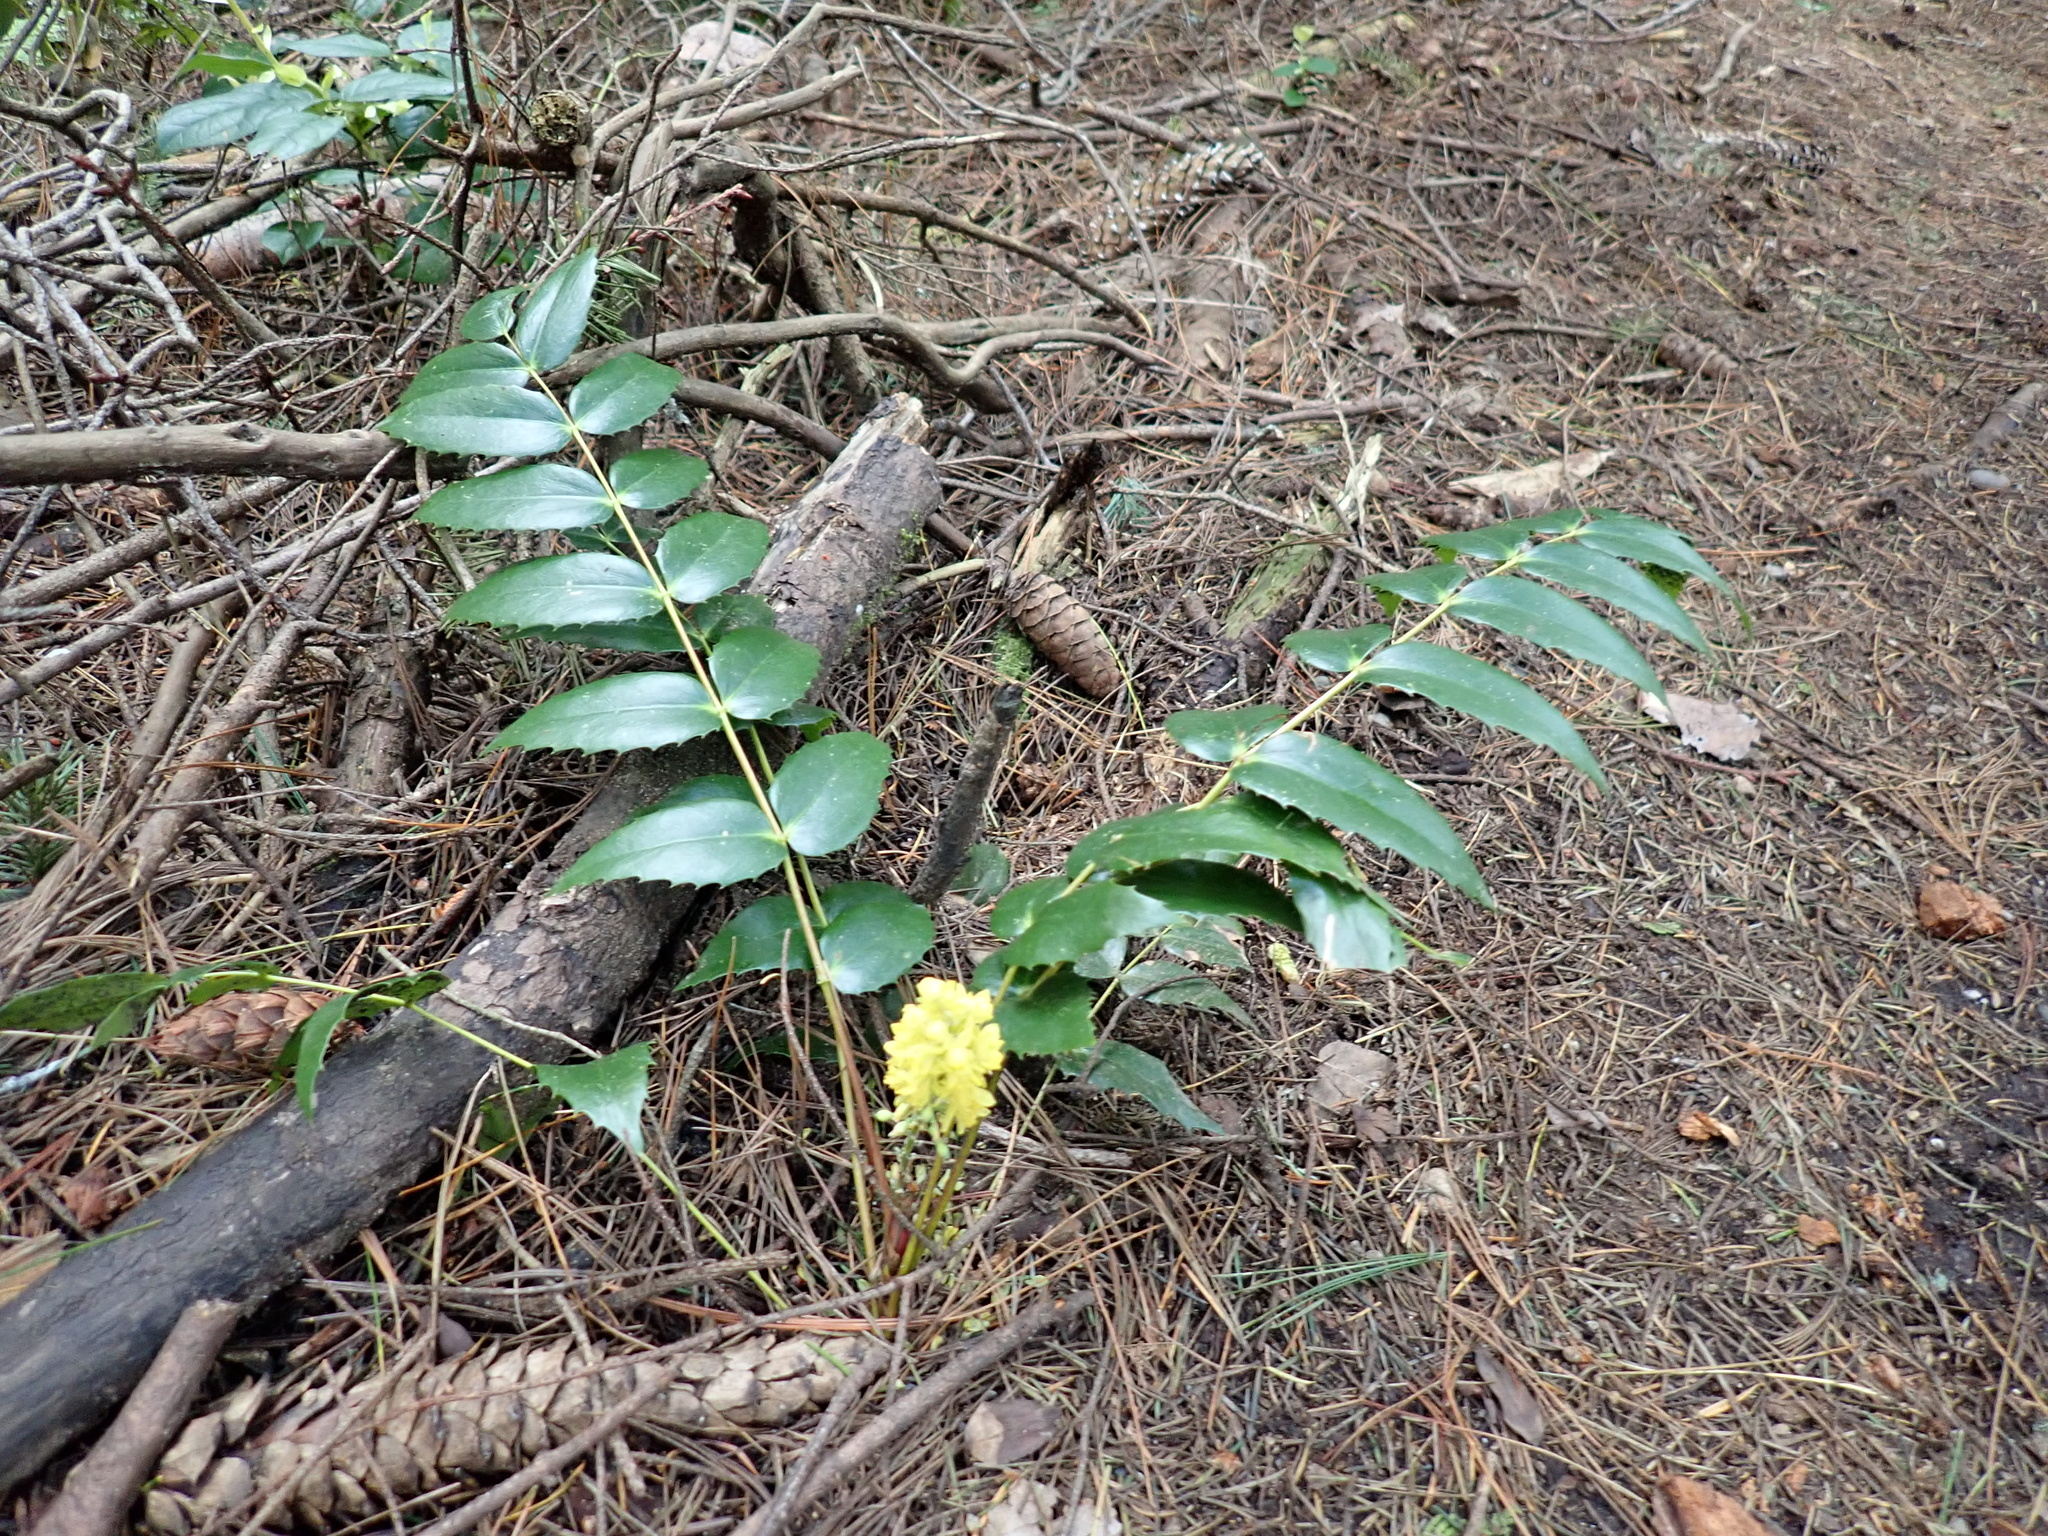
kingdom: Plantae
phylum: Tracheophyta
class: Magnoliopsida
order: Ranunculales
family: Berberidaceae
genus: Mahonia
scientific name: Mahonia nervosa
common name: Cascade oregon-grape
